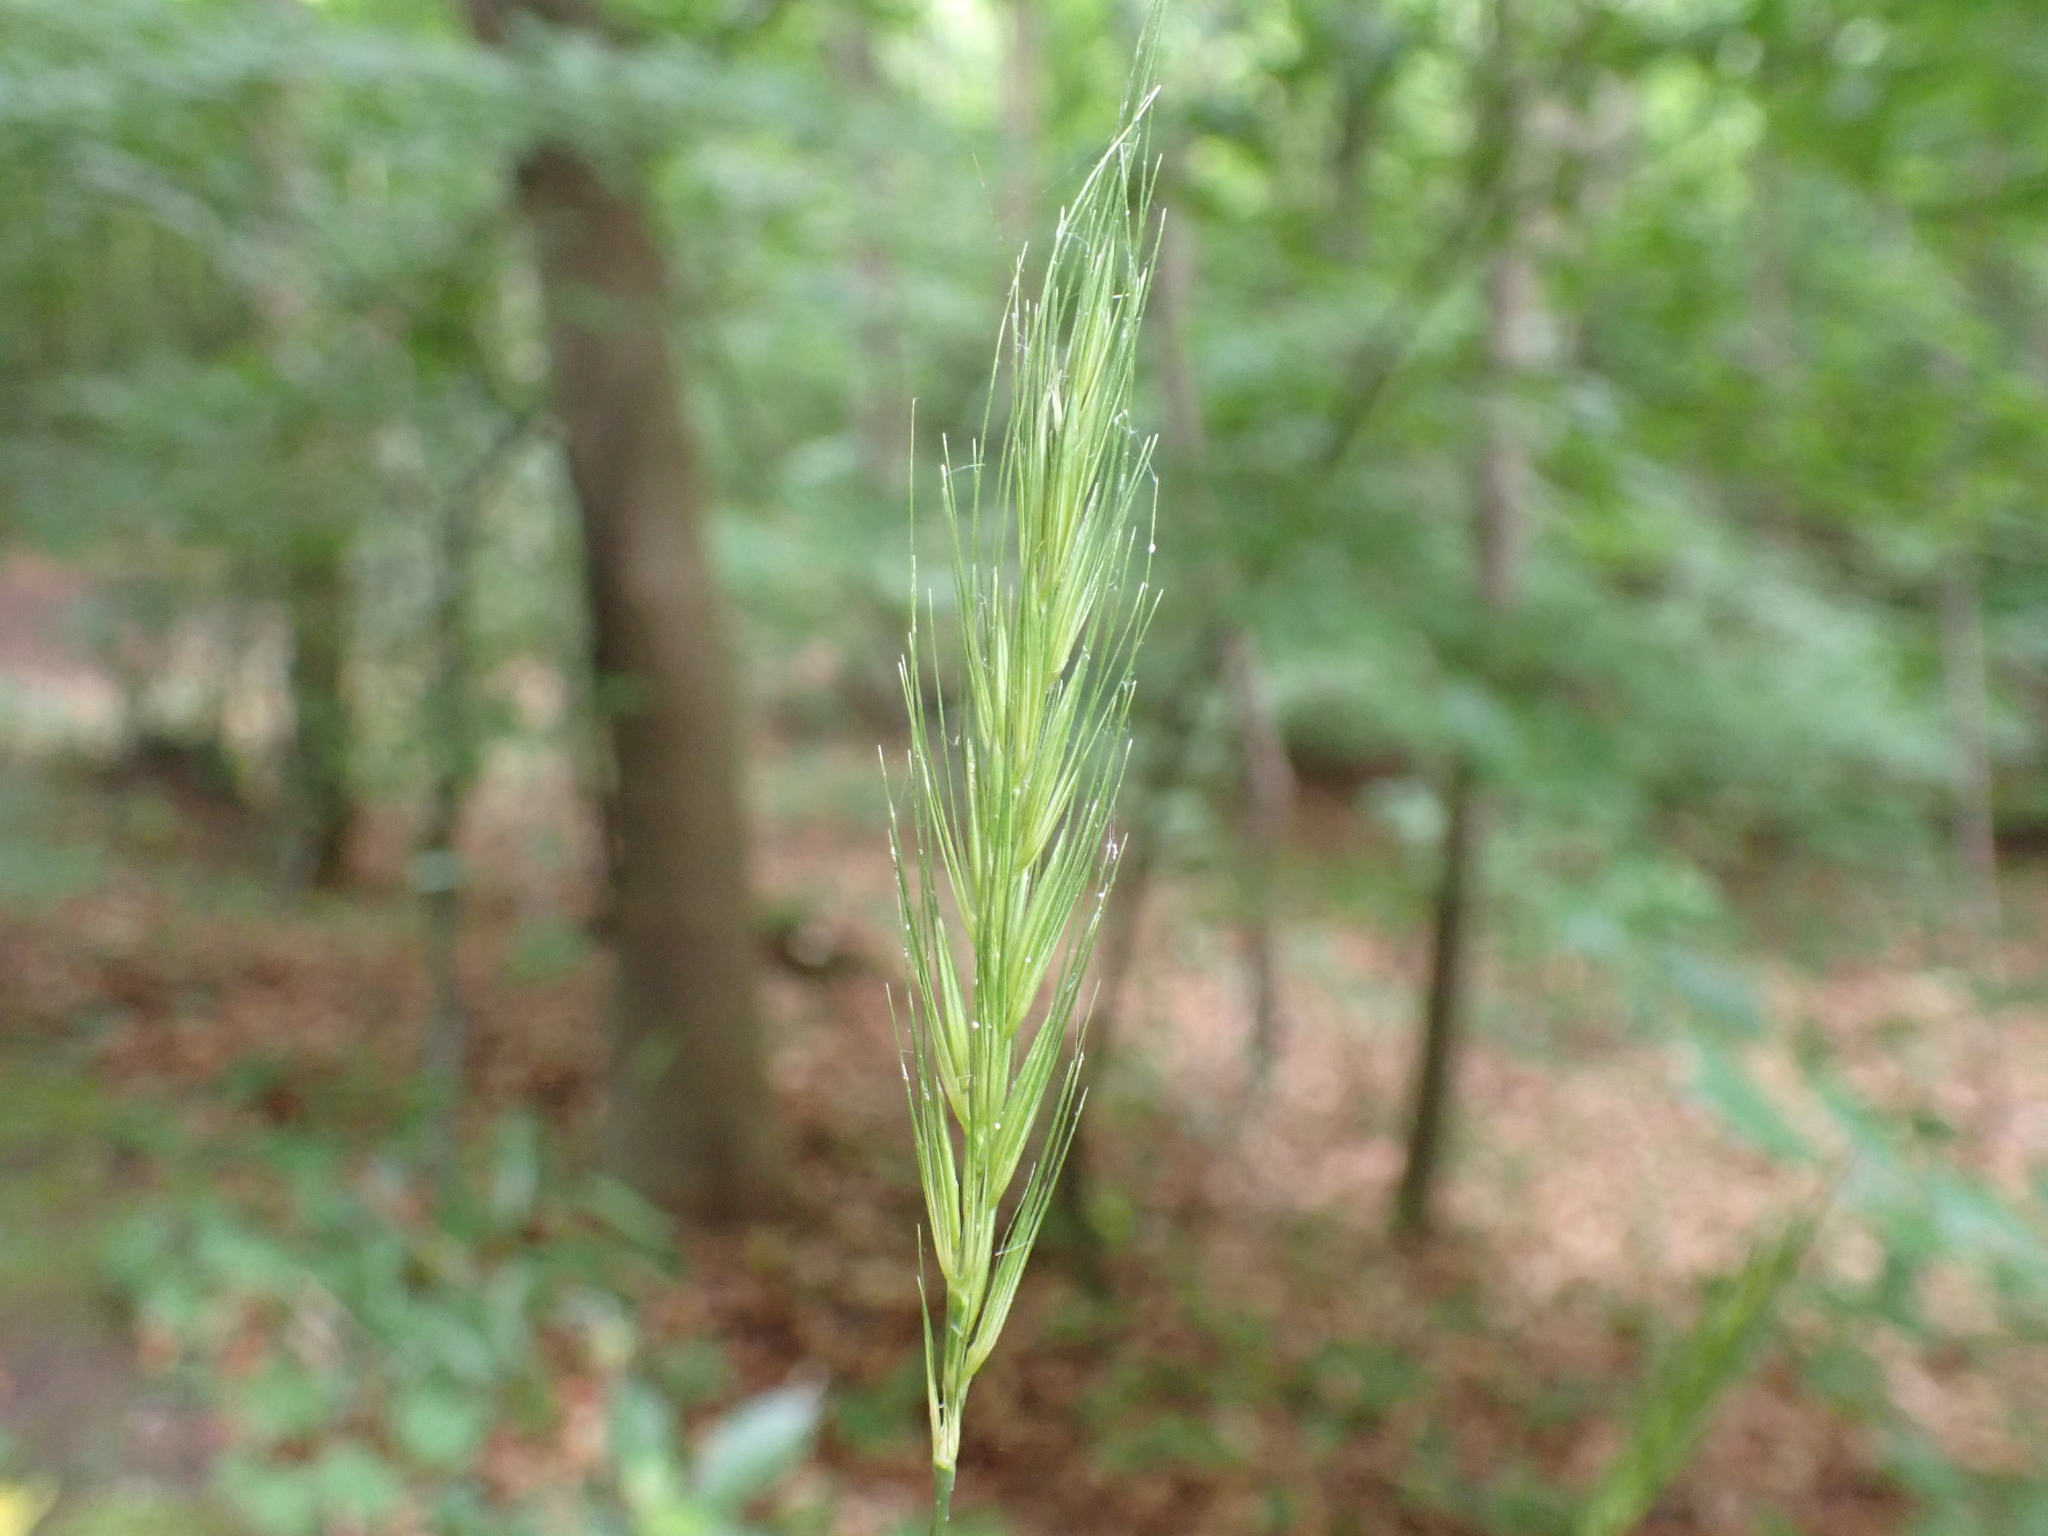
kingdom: Plantae
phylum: Tracheophyta
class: Liliopsida
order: Poales
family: Poaceae
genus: Hordelymus
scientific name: Hordelymus europaeus
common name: Wood-barley
